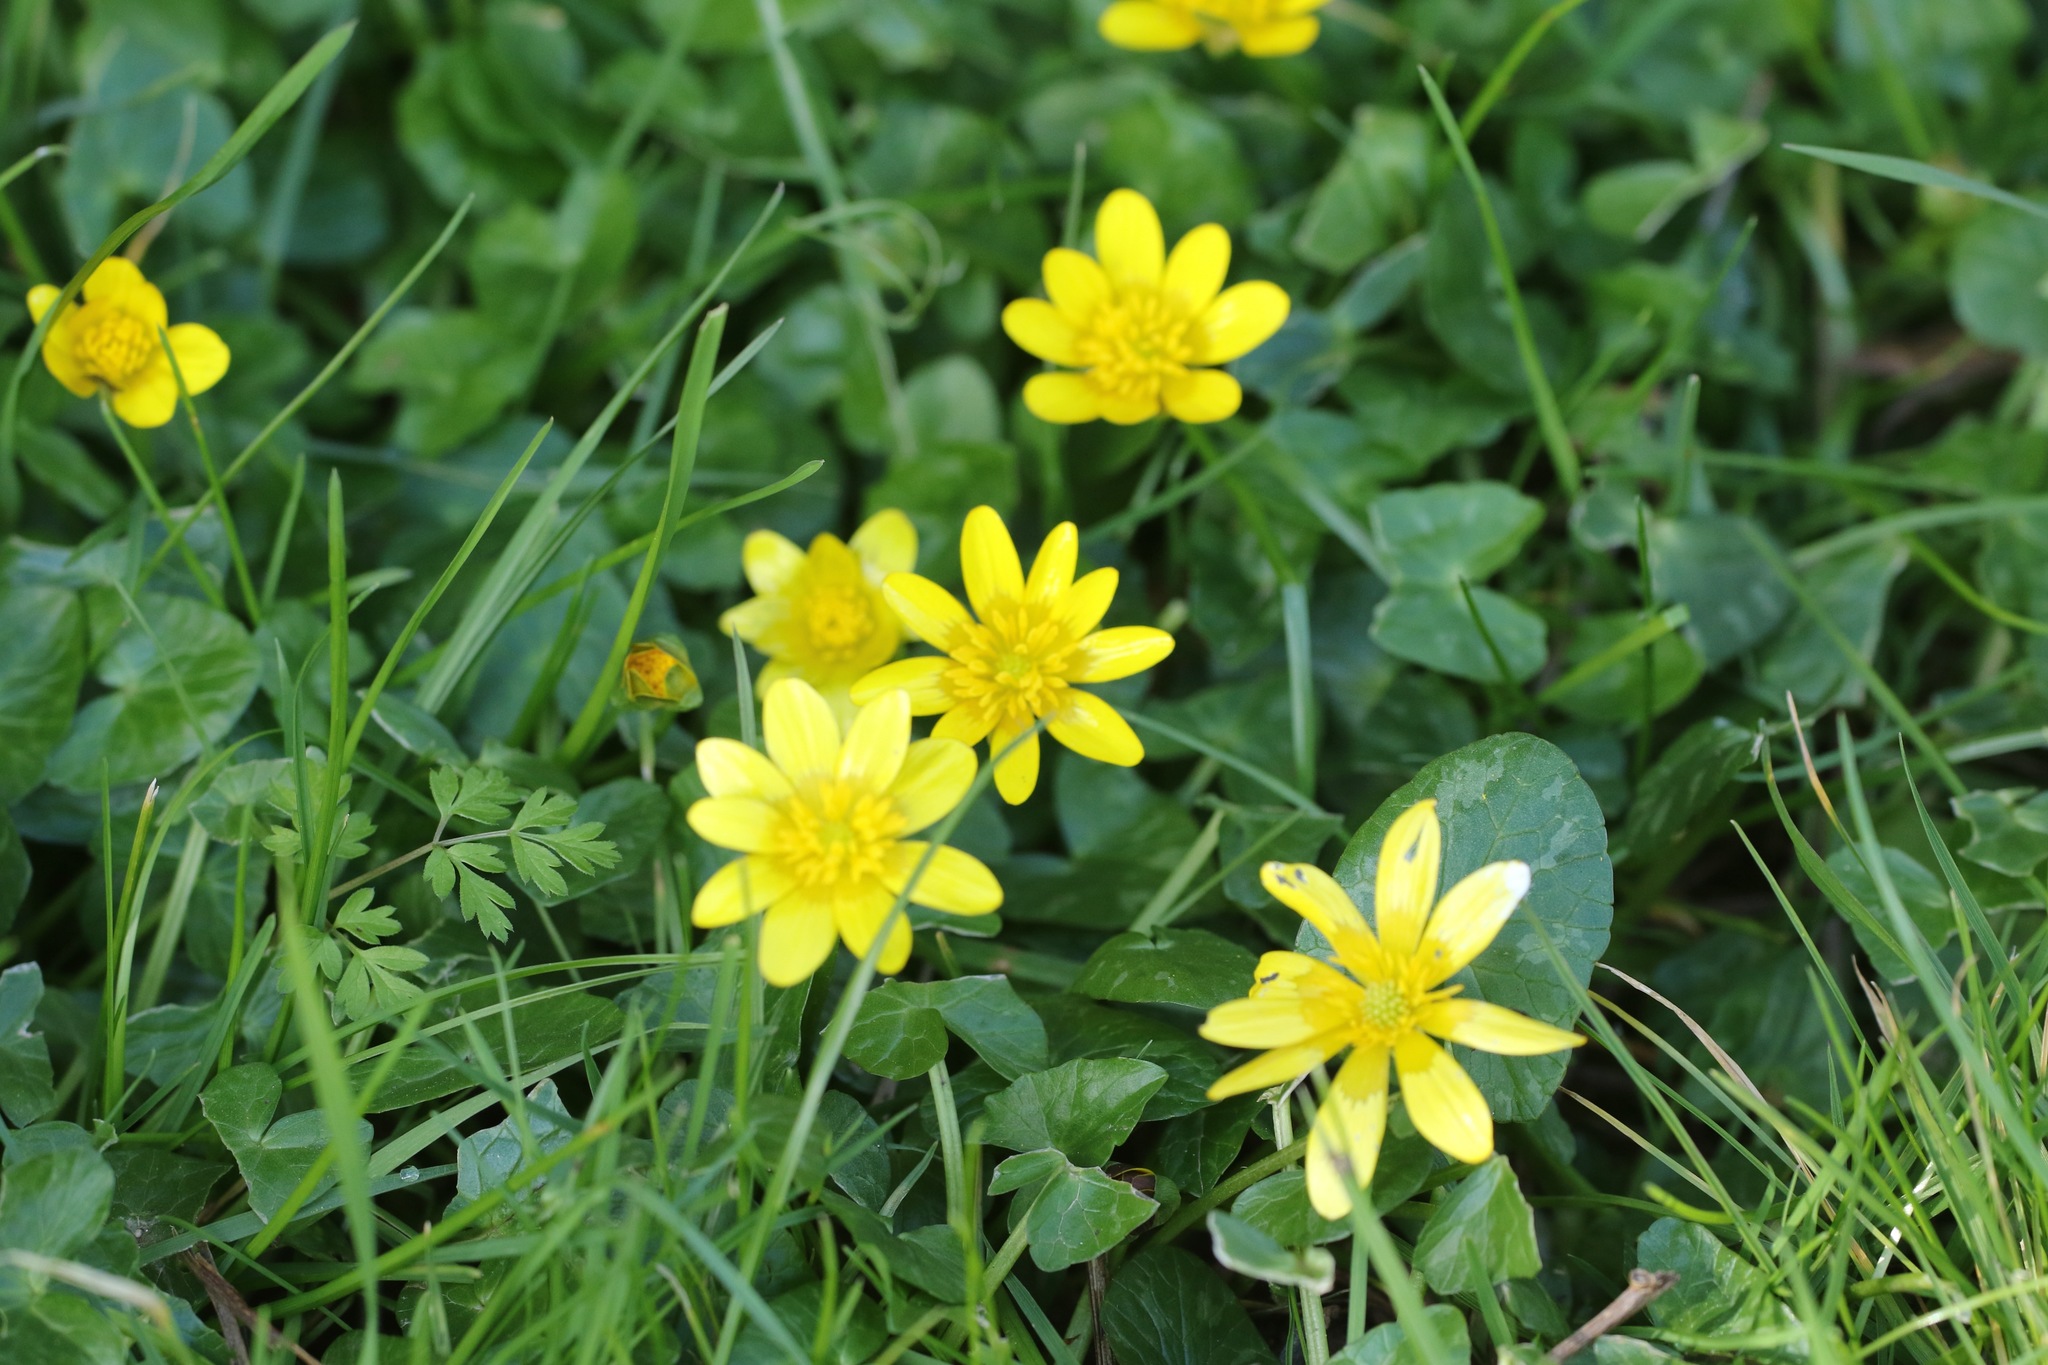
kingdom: Plantae
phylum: Tracheophyta
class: Magnoliopsida
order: Ranunculales
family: Ranunculaceae
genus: Ficaria
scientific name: Ficaria verna
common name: Lesser celandine
